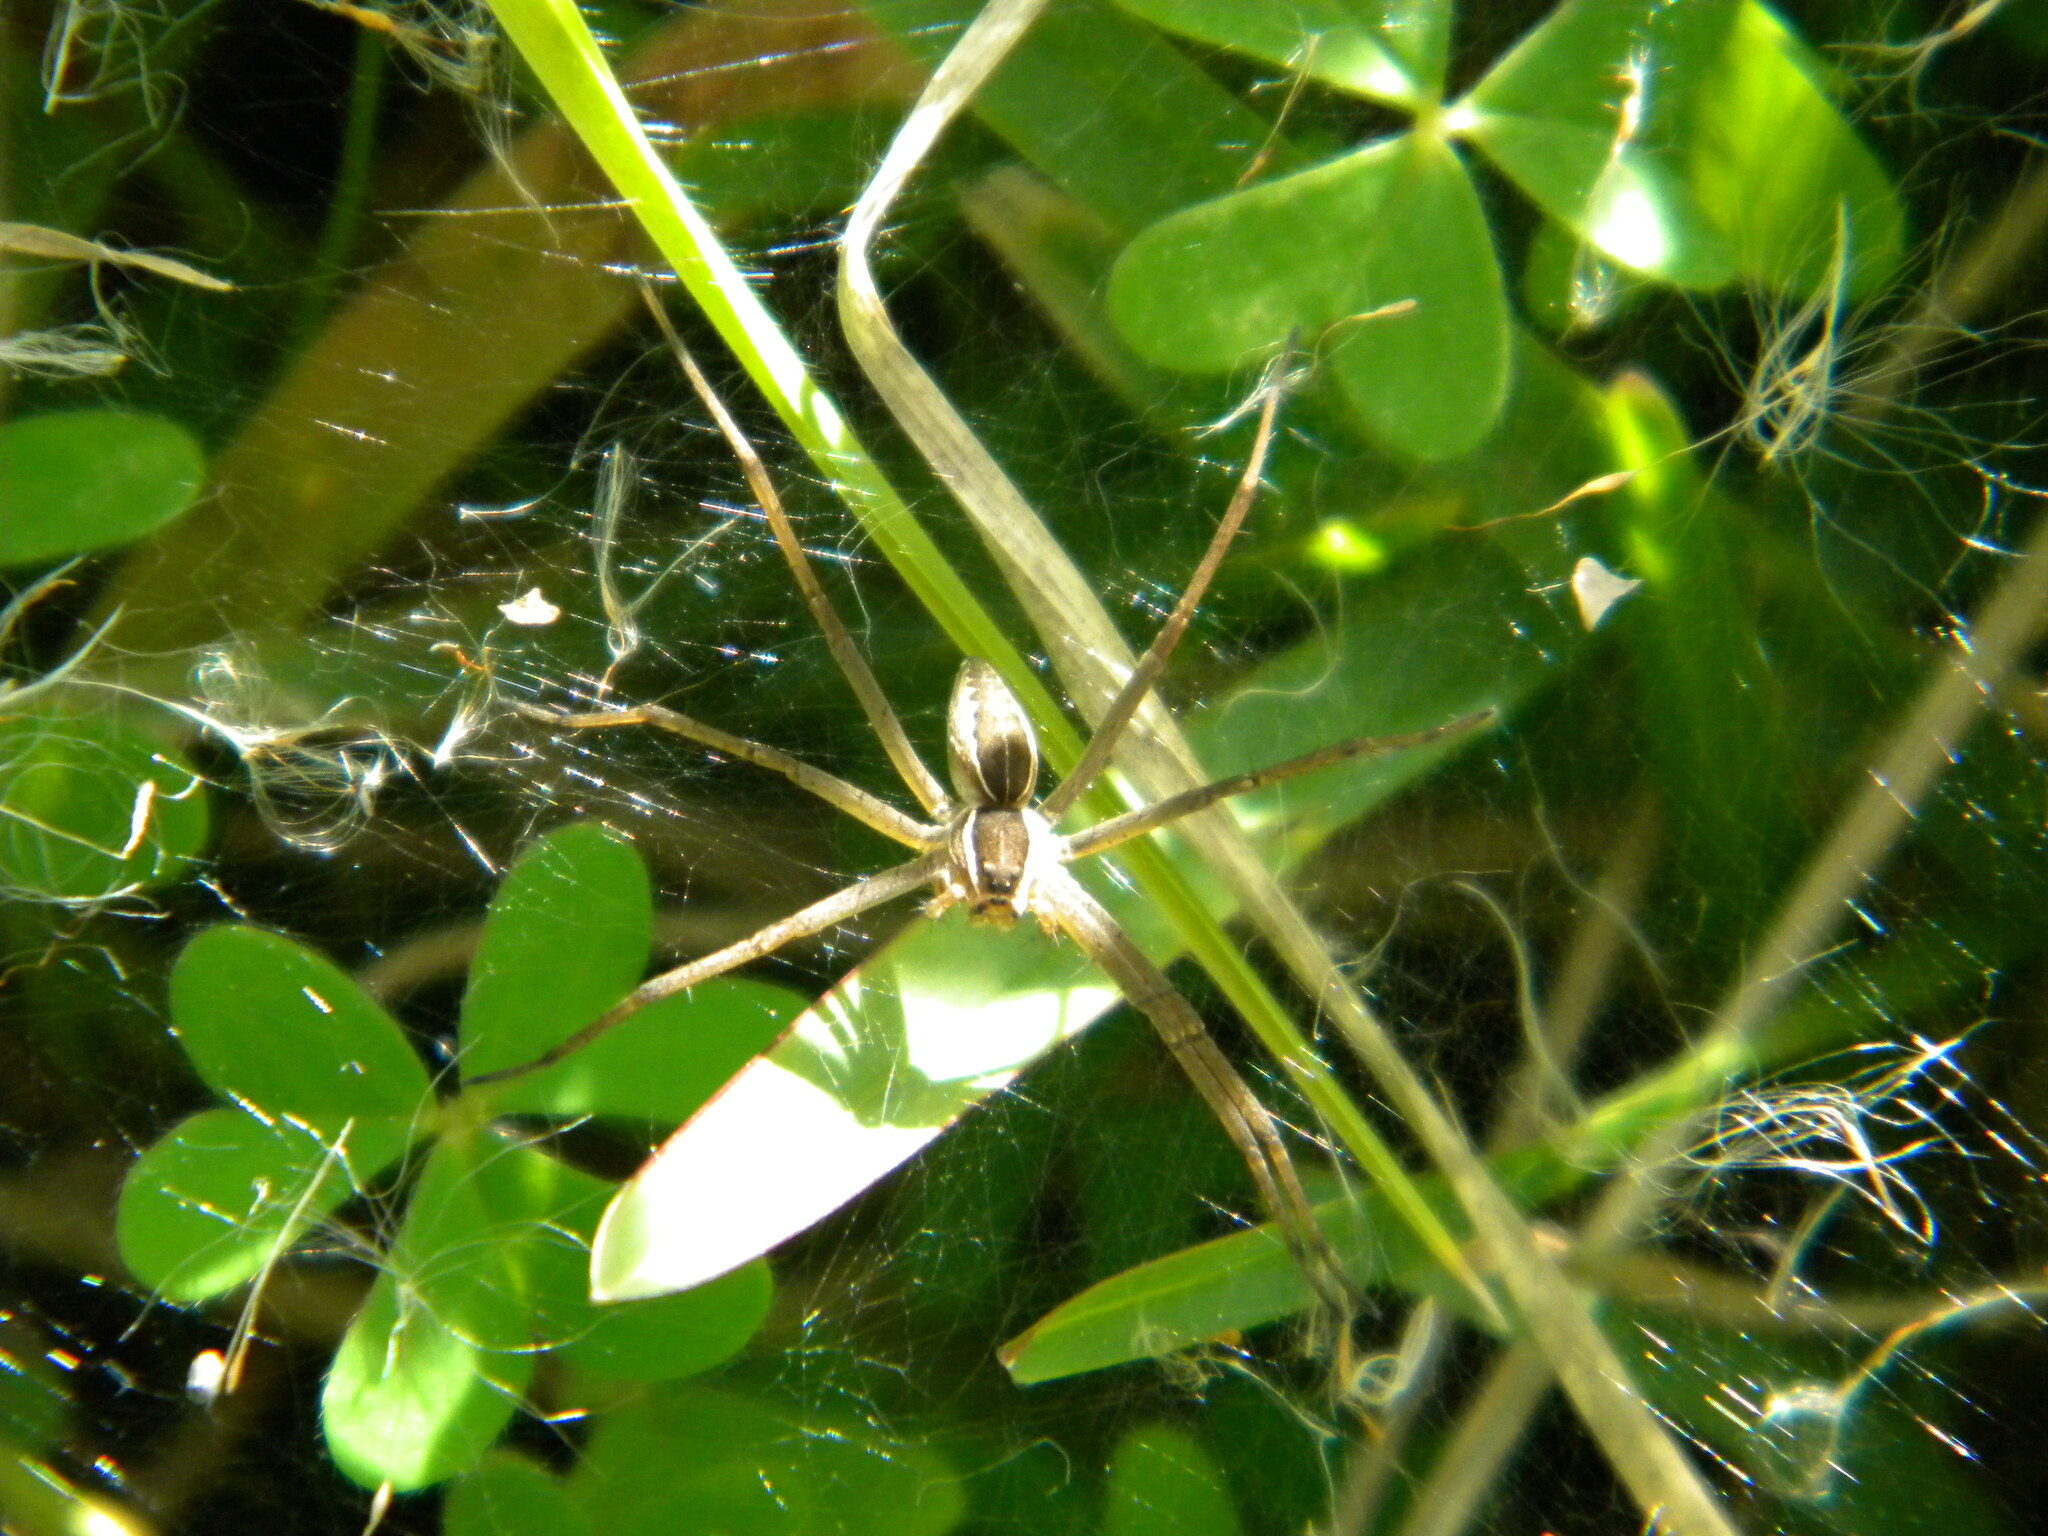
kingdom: Animalia
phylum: Arthropoda
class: Arachnida
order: Araneae
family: Pisauridae
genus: Euprosthenopsis
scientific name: Euprosthenopsis pulchella
